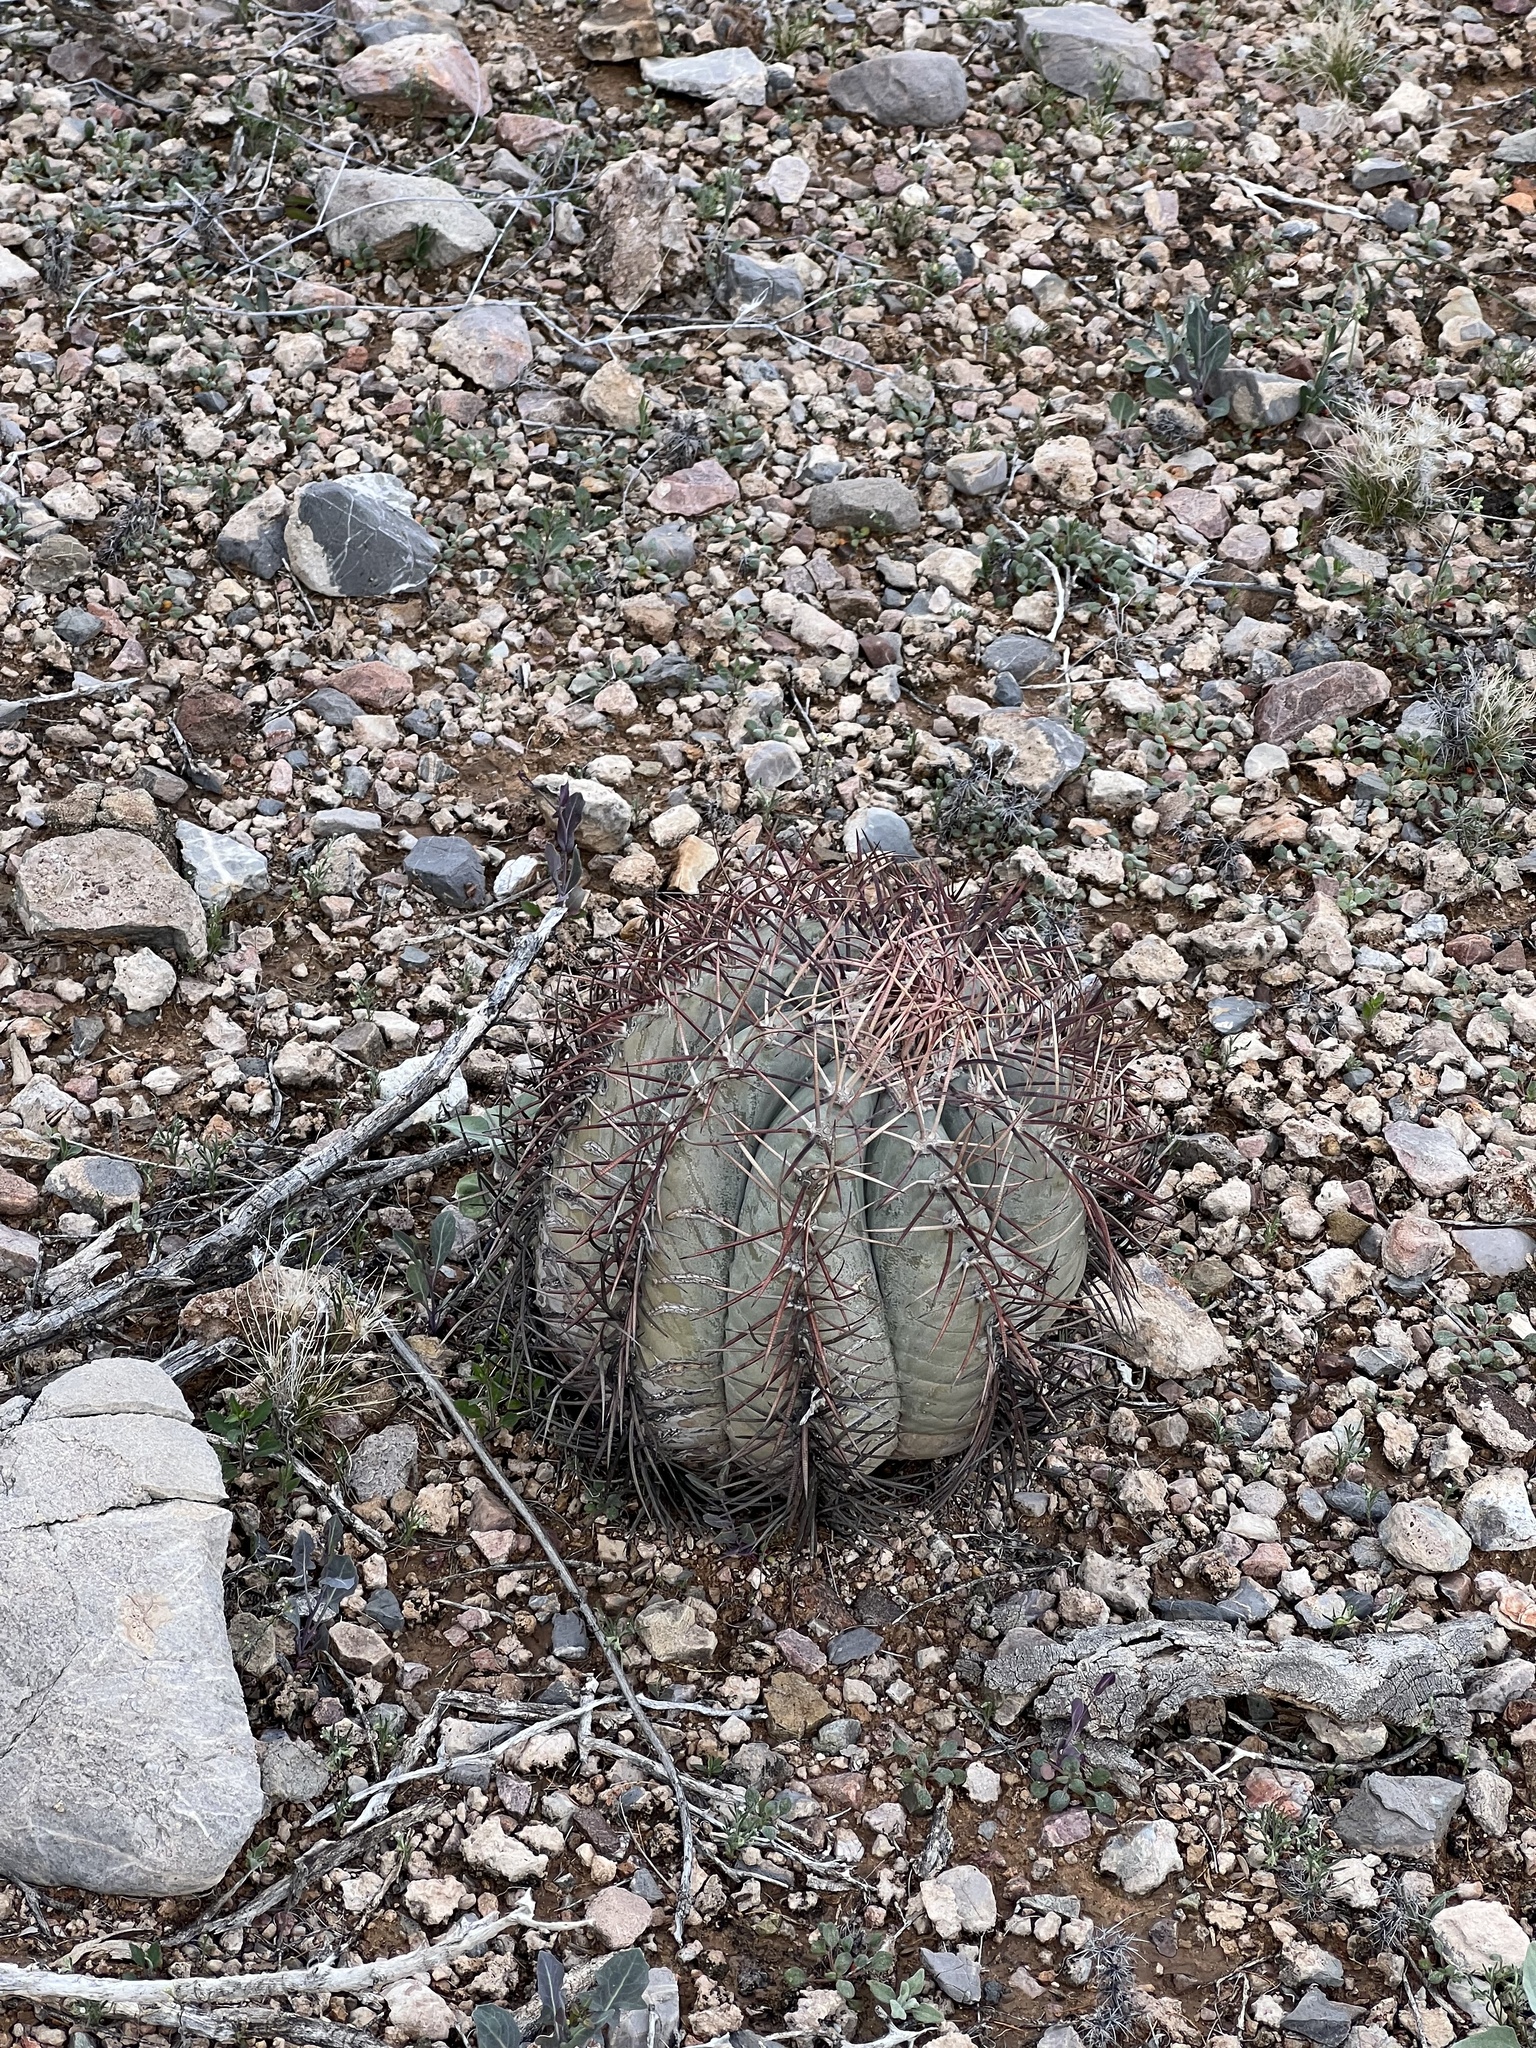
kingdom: Plantae
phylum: Tracheophyta
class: Magnoliopsida
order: Caryophyllales
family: Cactaceae
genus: Echinocactus
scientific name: Echinocactus horizonthalonius
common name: Devilshead
